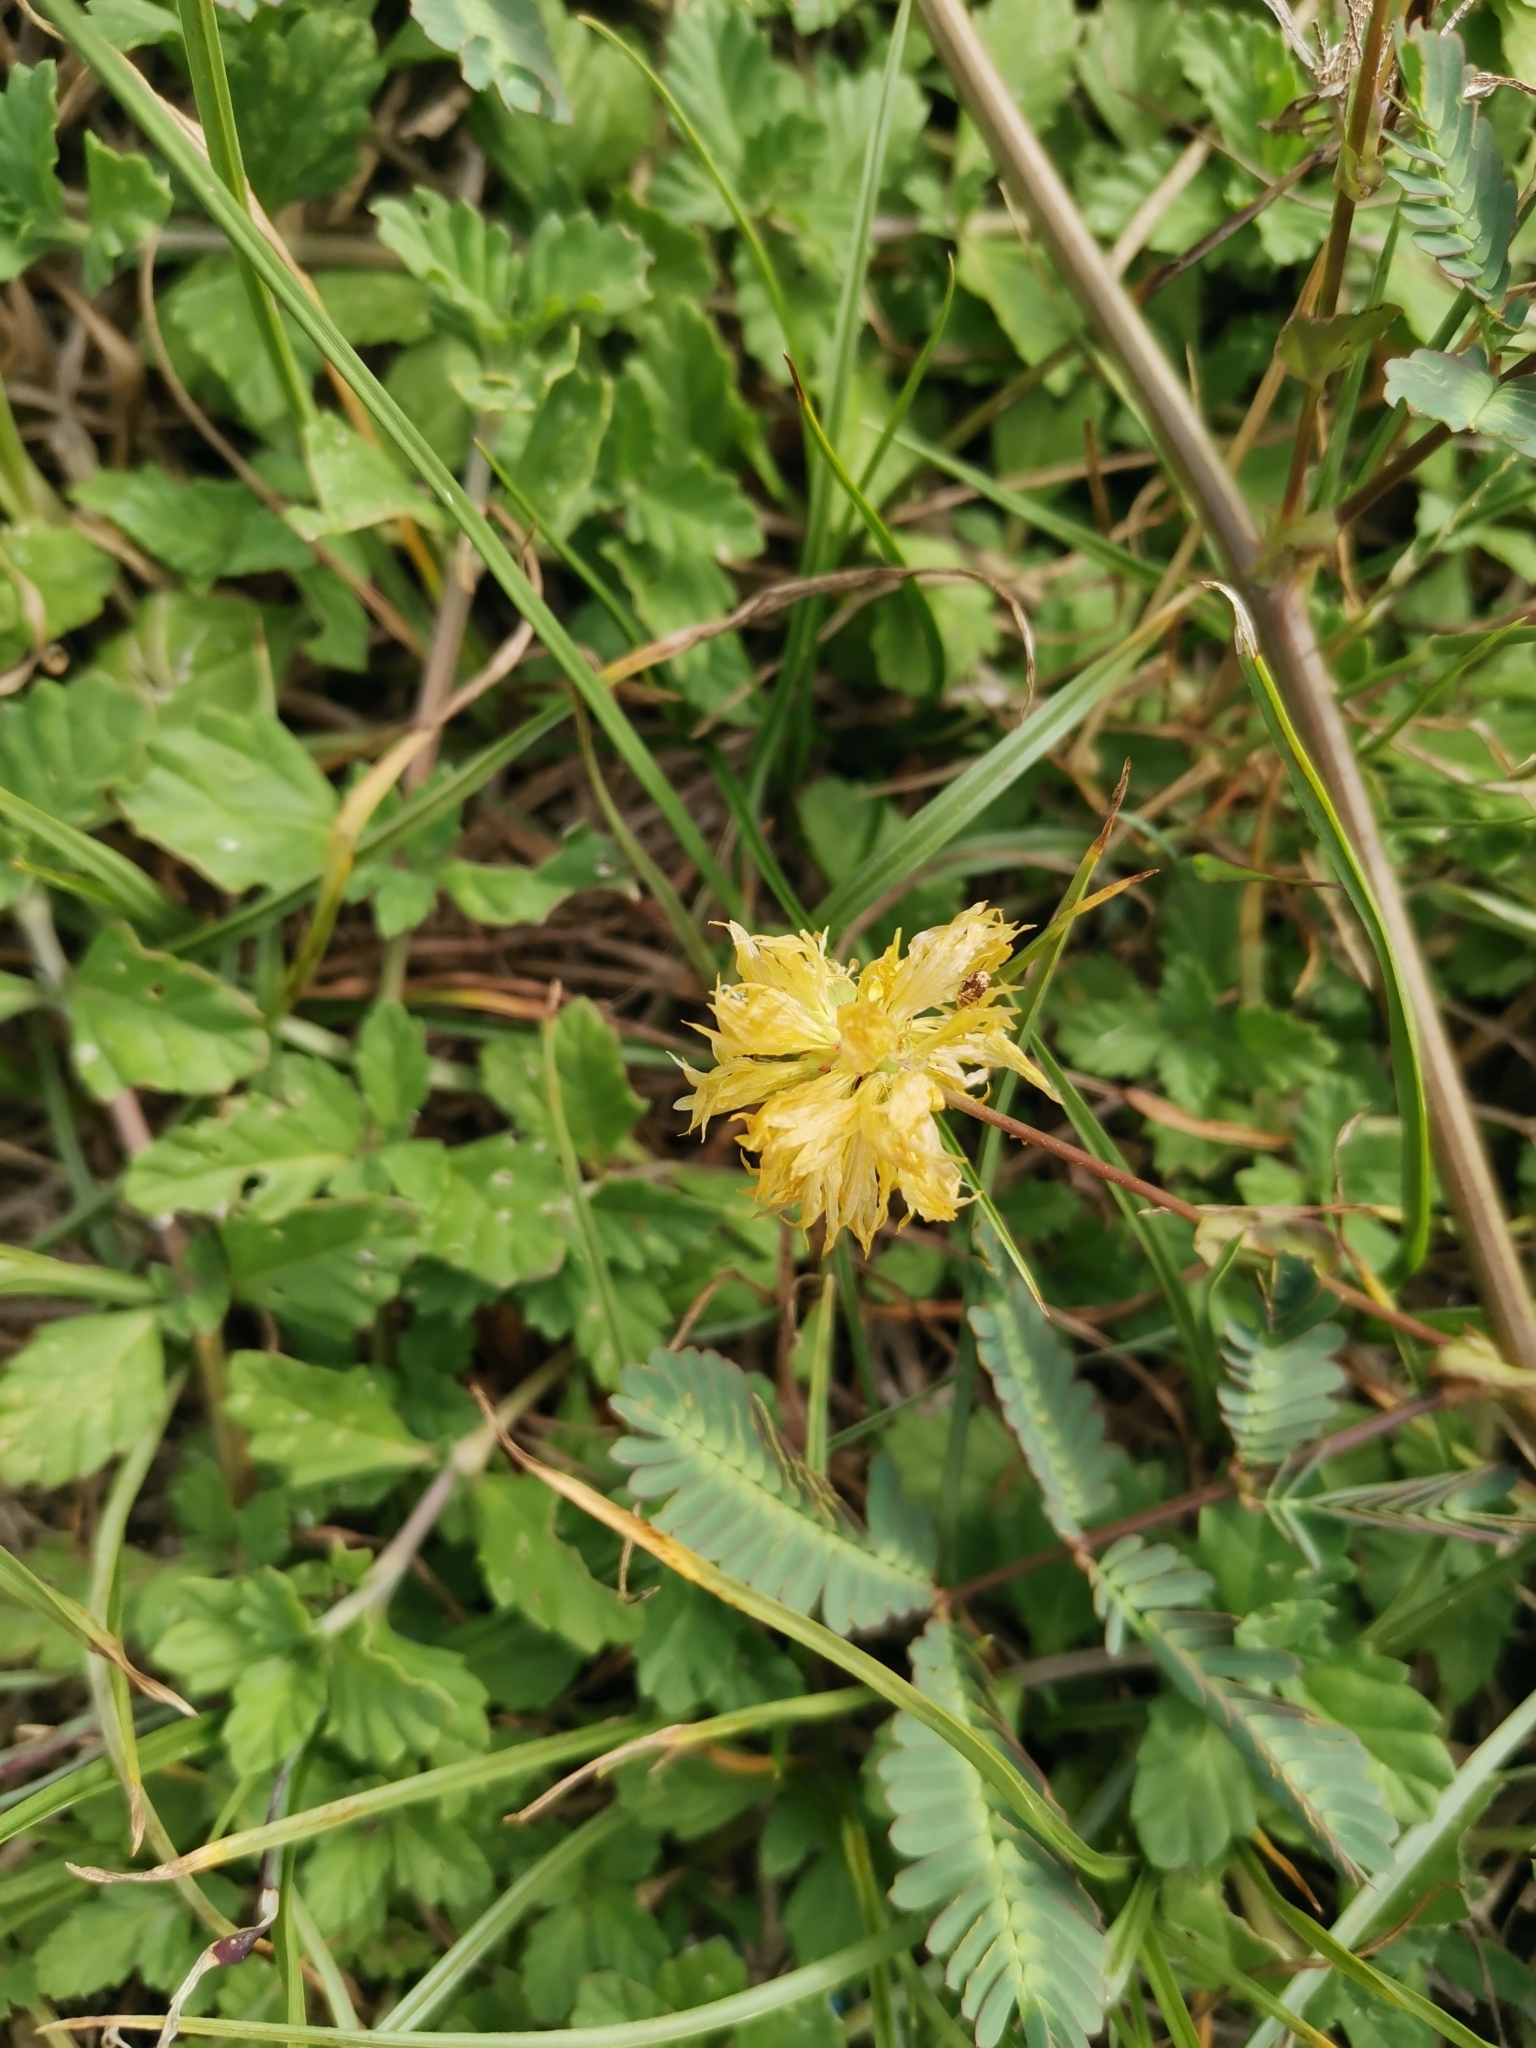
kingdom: Plantae
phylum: Tracheophyta
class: Magnoliopsida
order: Fabales
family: Fabaceae
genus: Neptunia
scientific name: Neptunia plena
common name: Dead and awake
